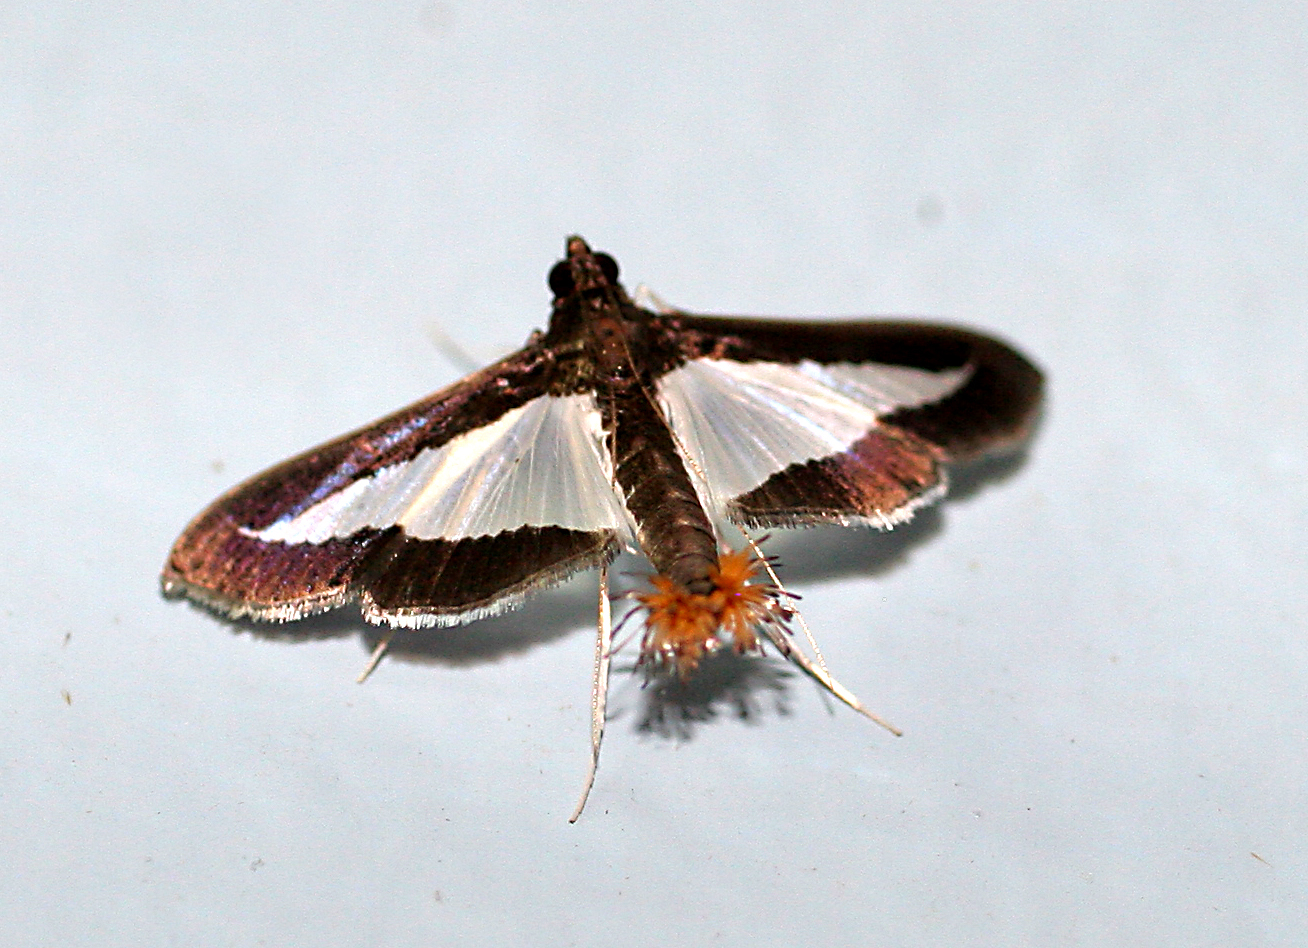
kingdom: Animalia
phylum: Arthropoda
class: Insecta
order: Lepidoptera
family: Crambidae
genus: Cryptographis
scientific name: Cryptographis infimalis
